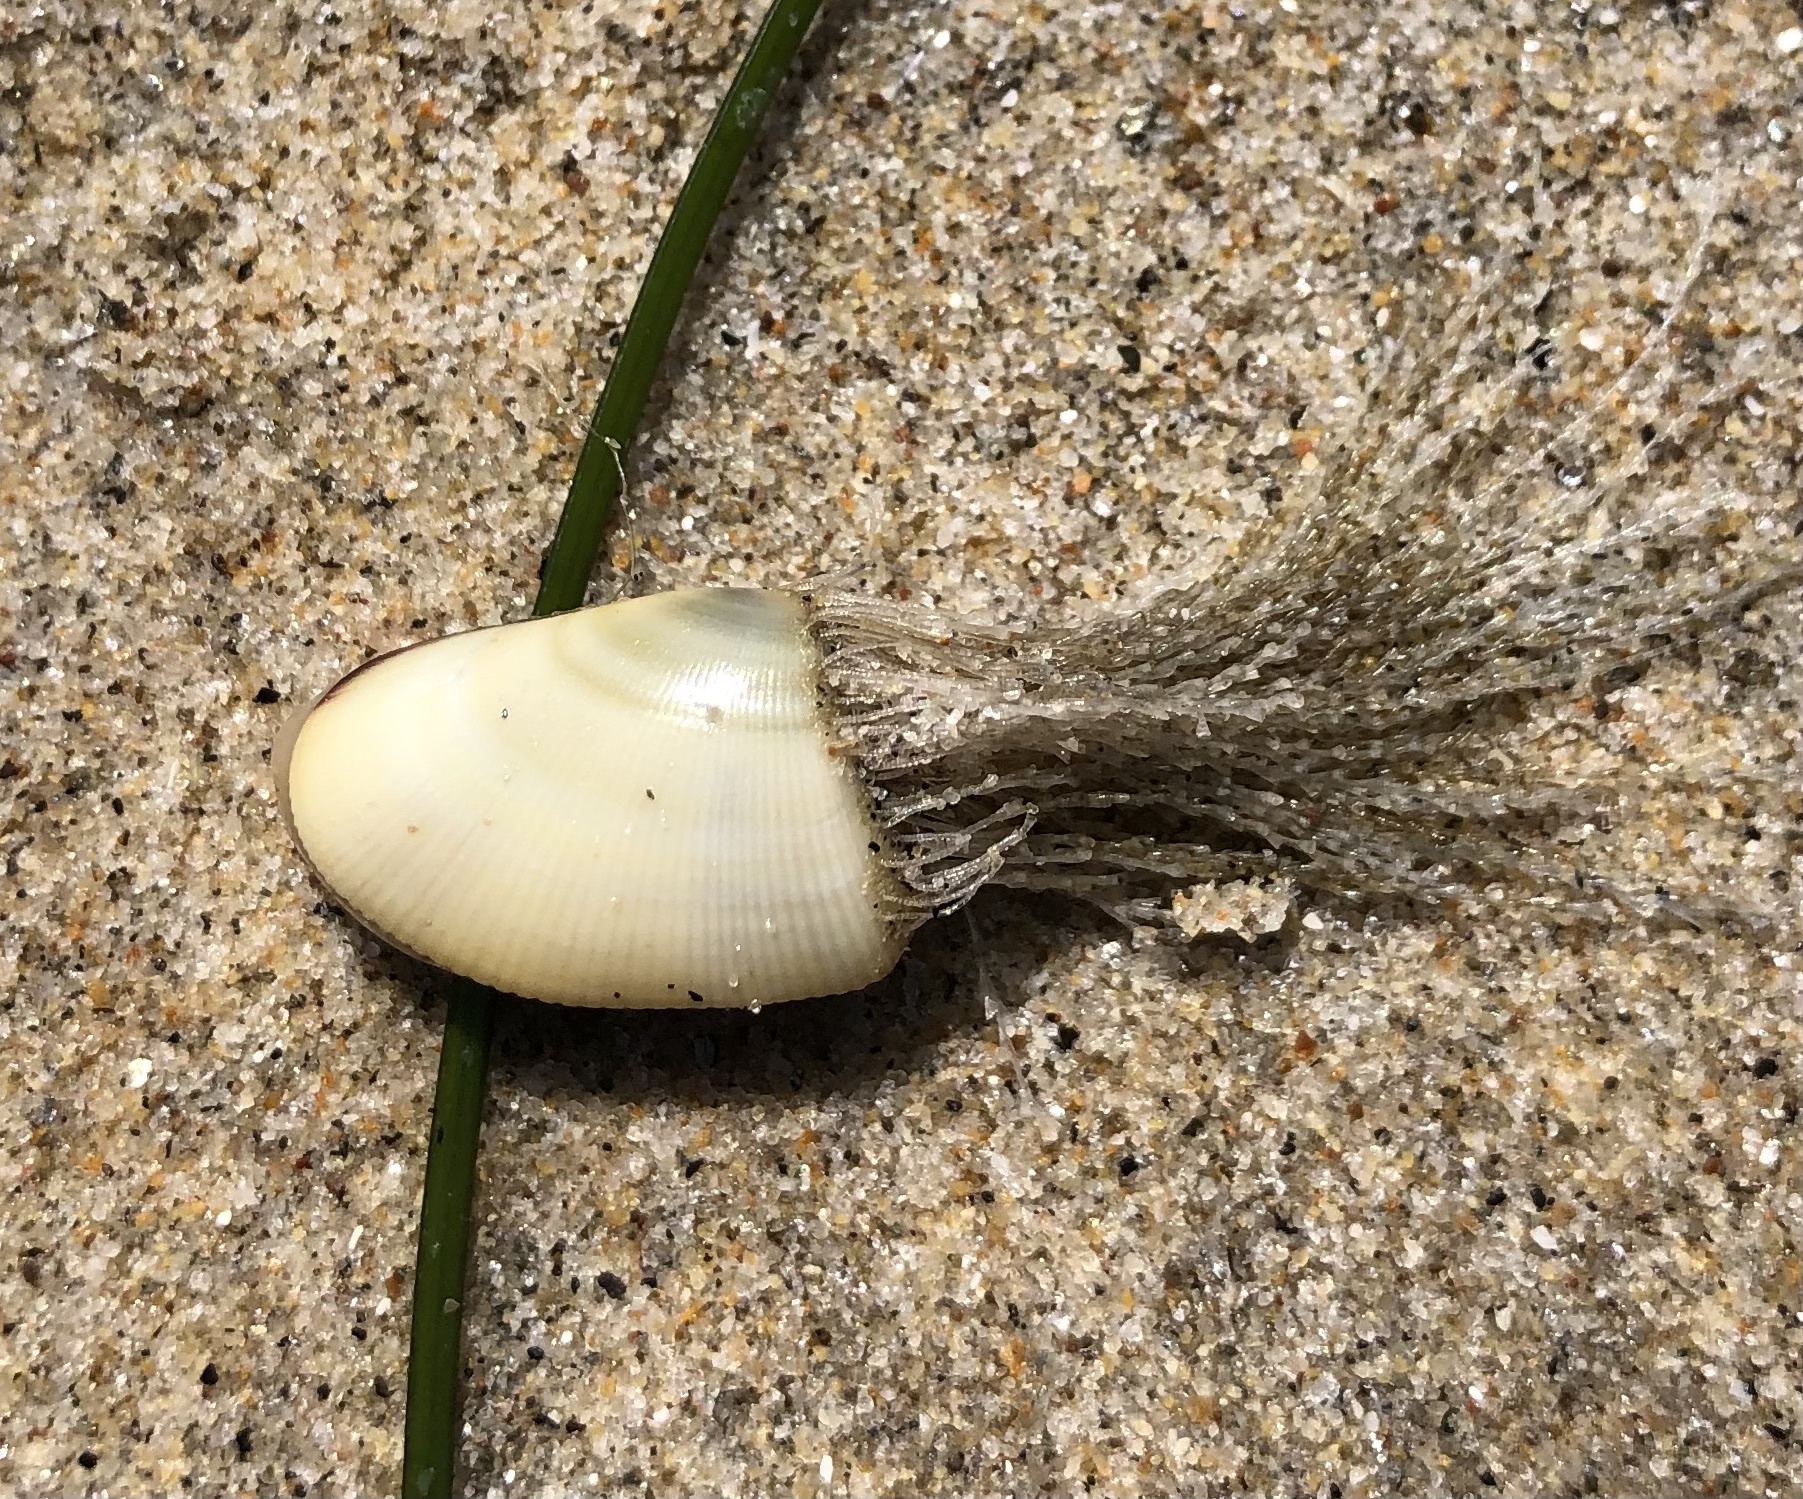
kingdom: Animalia
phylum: Cnidaria
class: Hydrozoa
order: Leptothecata
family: Lovenellidae
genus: Eucheilota
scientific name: Eucheilota bakeri
